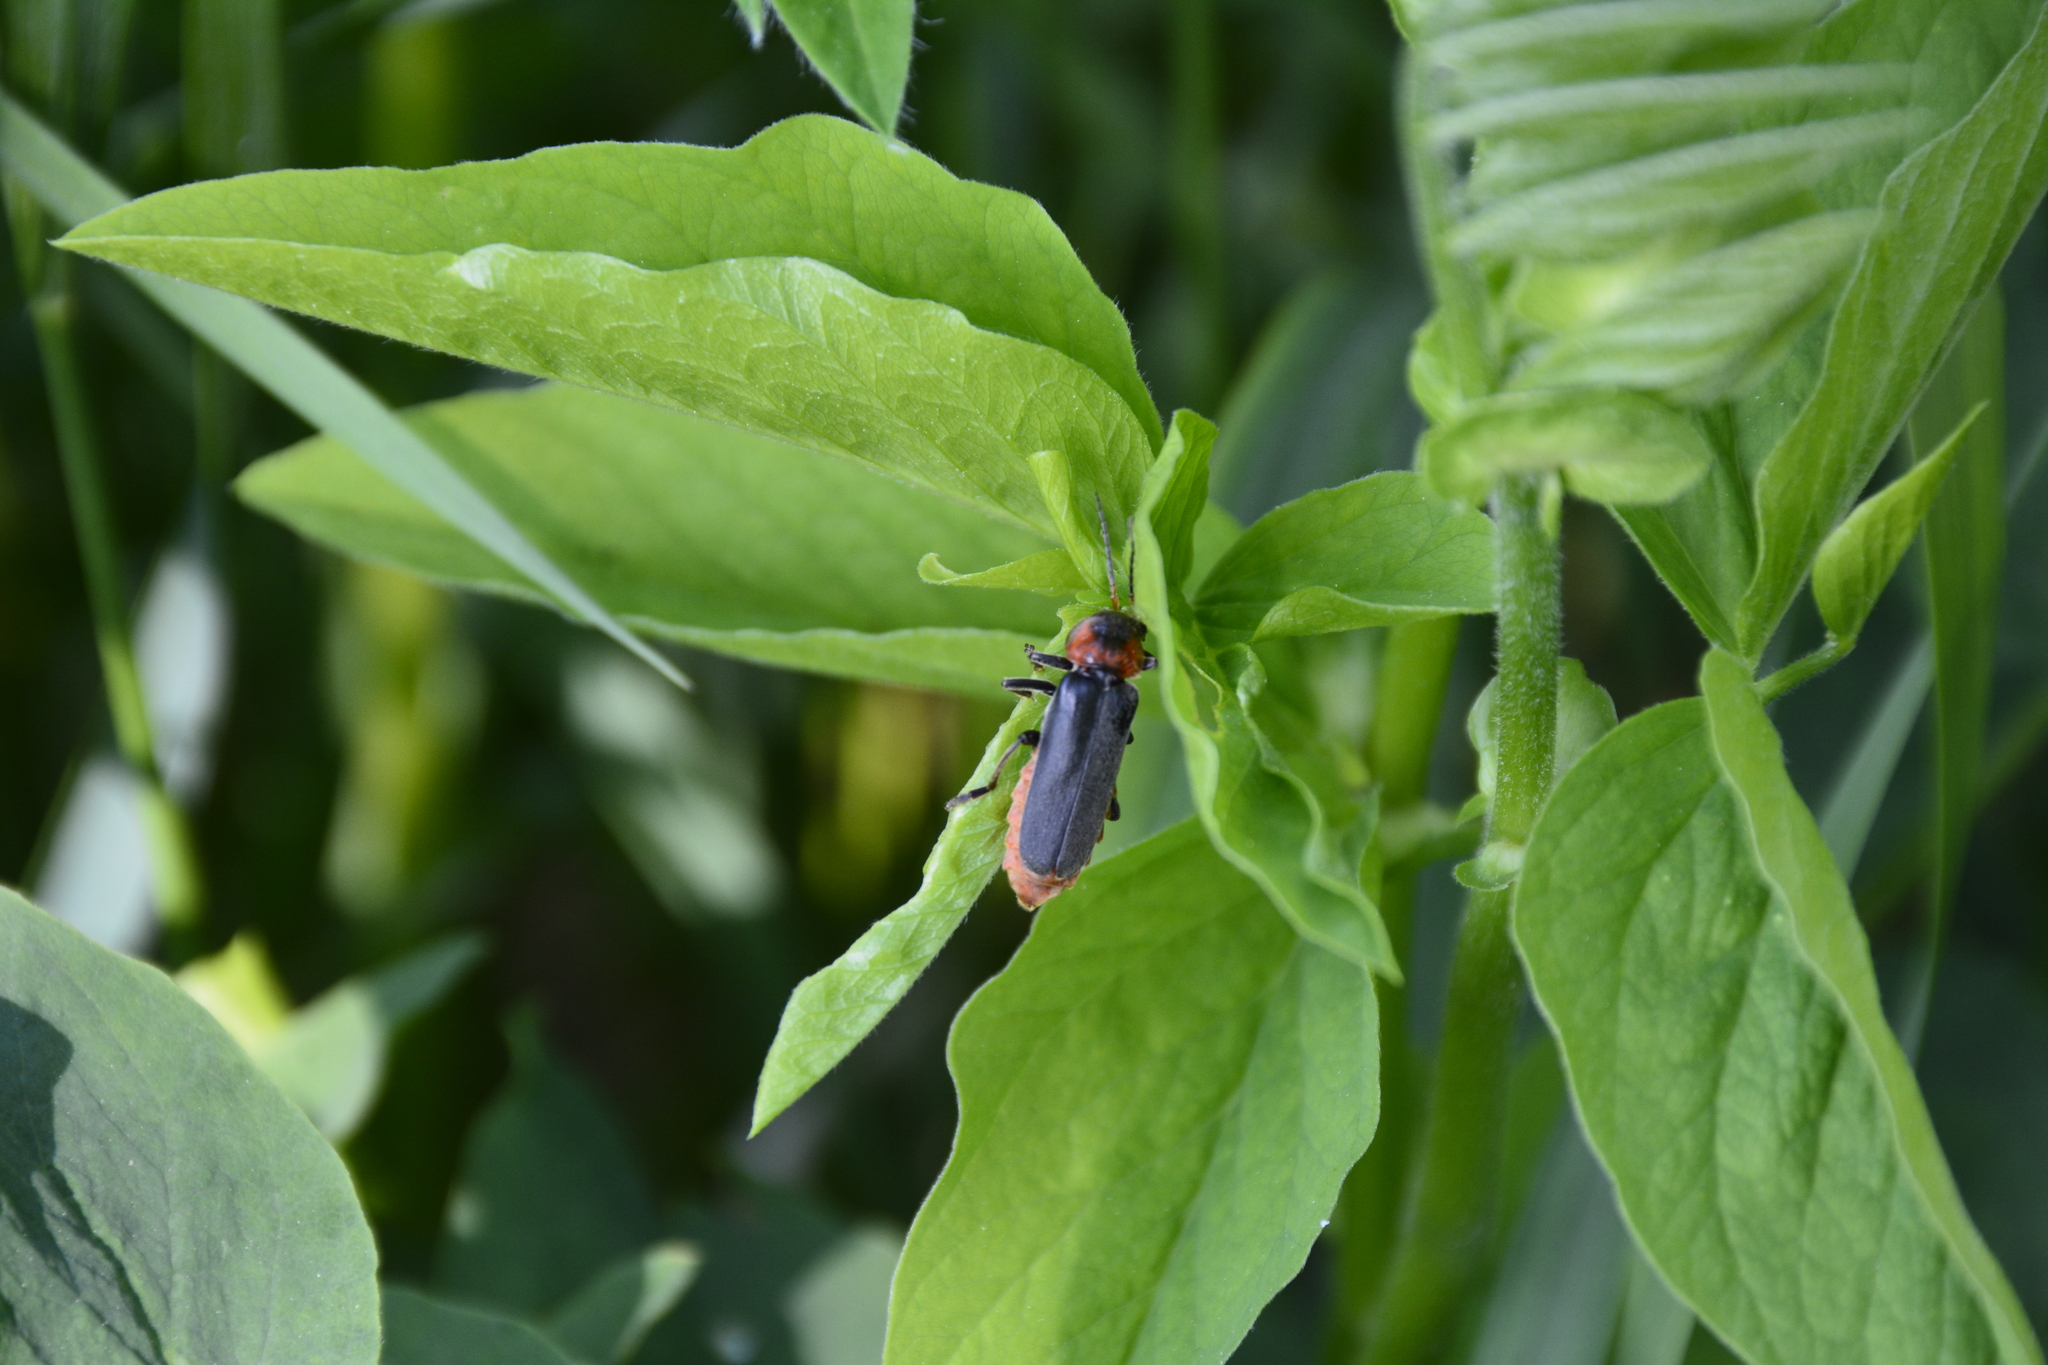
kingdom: Animalia
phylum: Arthropoda
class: Insecta
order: Coleoptera
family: Cantharidae
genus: Cantharis
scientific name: Cantharis fusca
